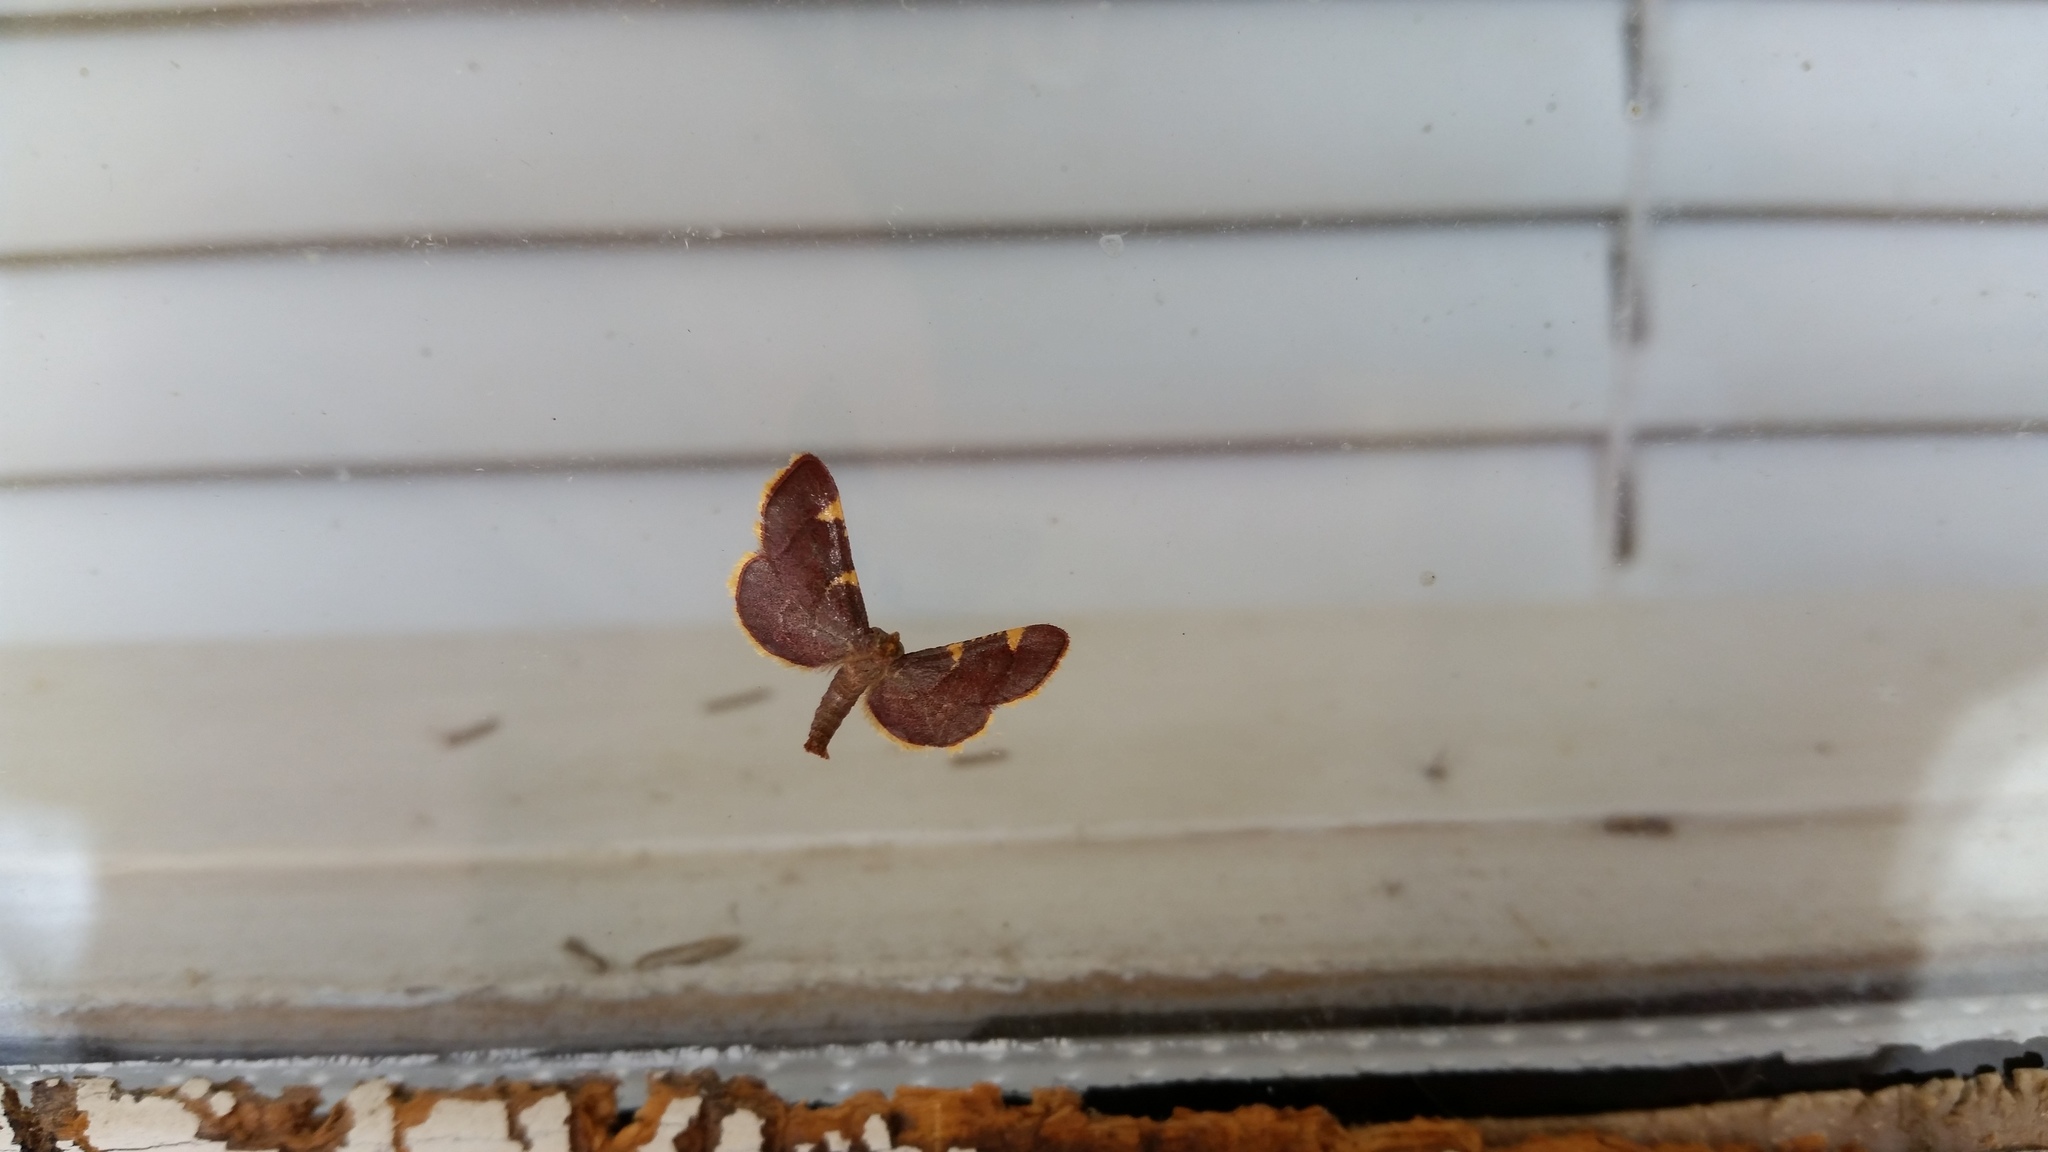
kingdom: Animalia
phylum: Arthropoda
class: Insecta
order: Lepidoptera
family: Pyralidae
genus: Hypsopygia
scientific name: Hypsopygia olinalis
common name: Yellow-fringed dolichomia moth
